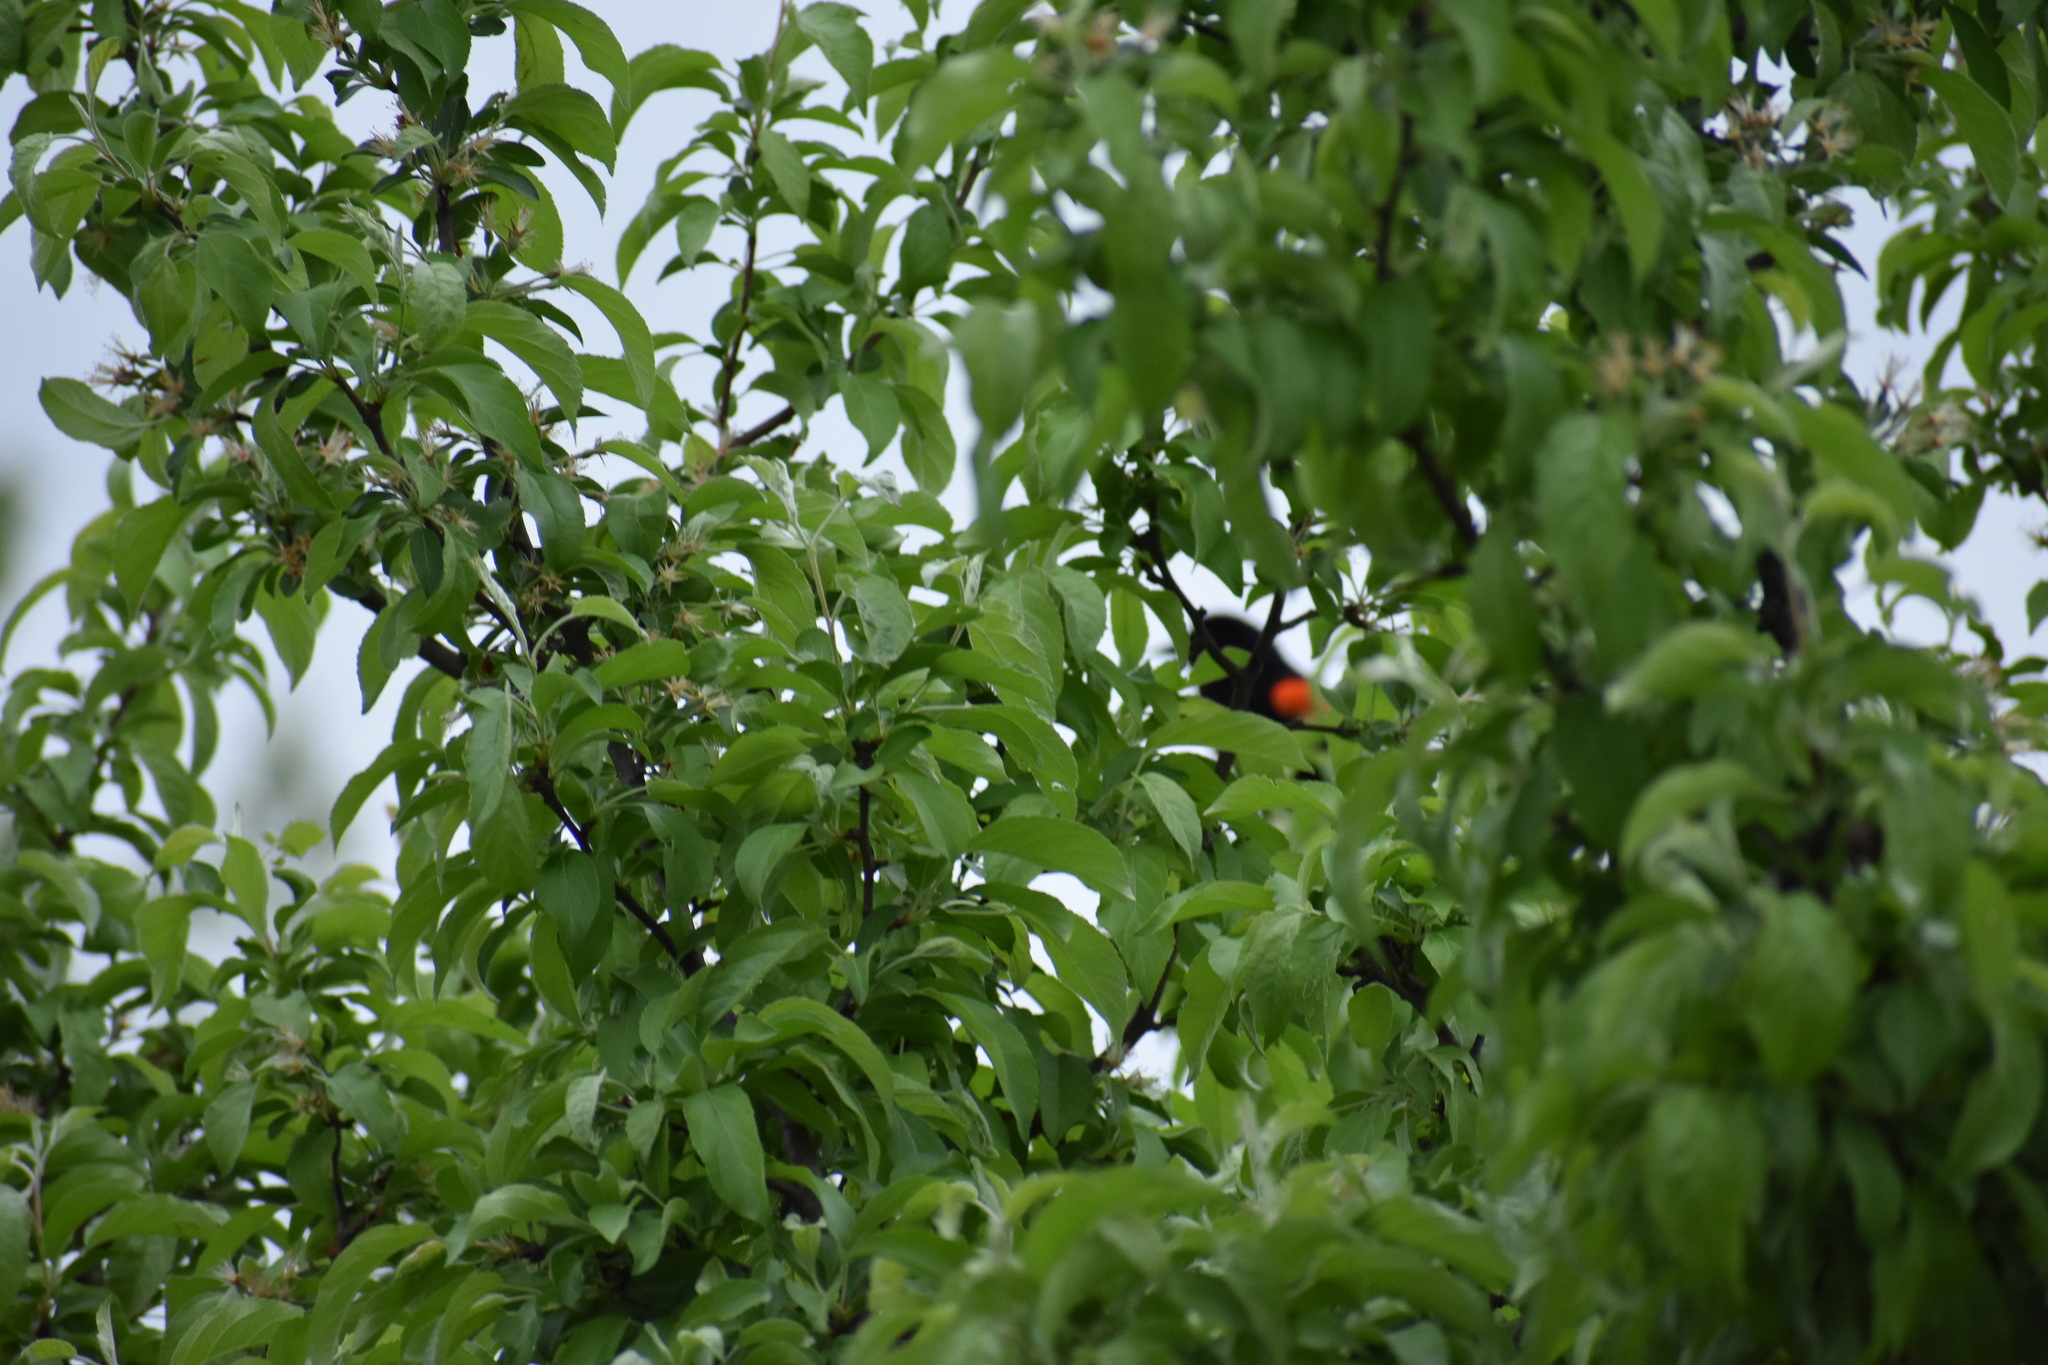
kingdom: Animalia
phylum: Chordata
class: Aves
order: Passeriformes
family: Icteridae
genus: Agelaius
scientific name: Agelaius phoeniceus
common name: Red-winged blackbird
